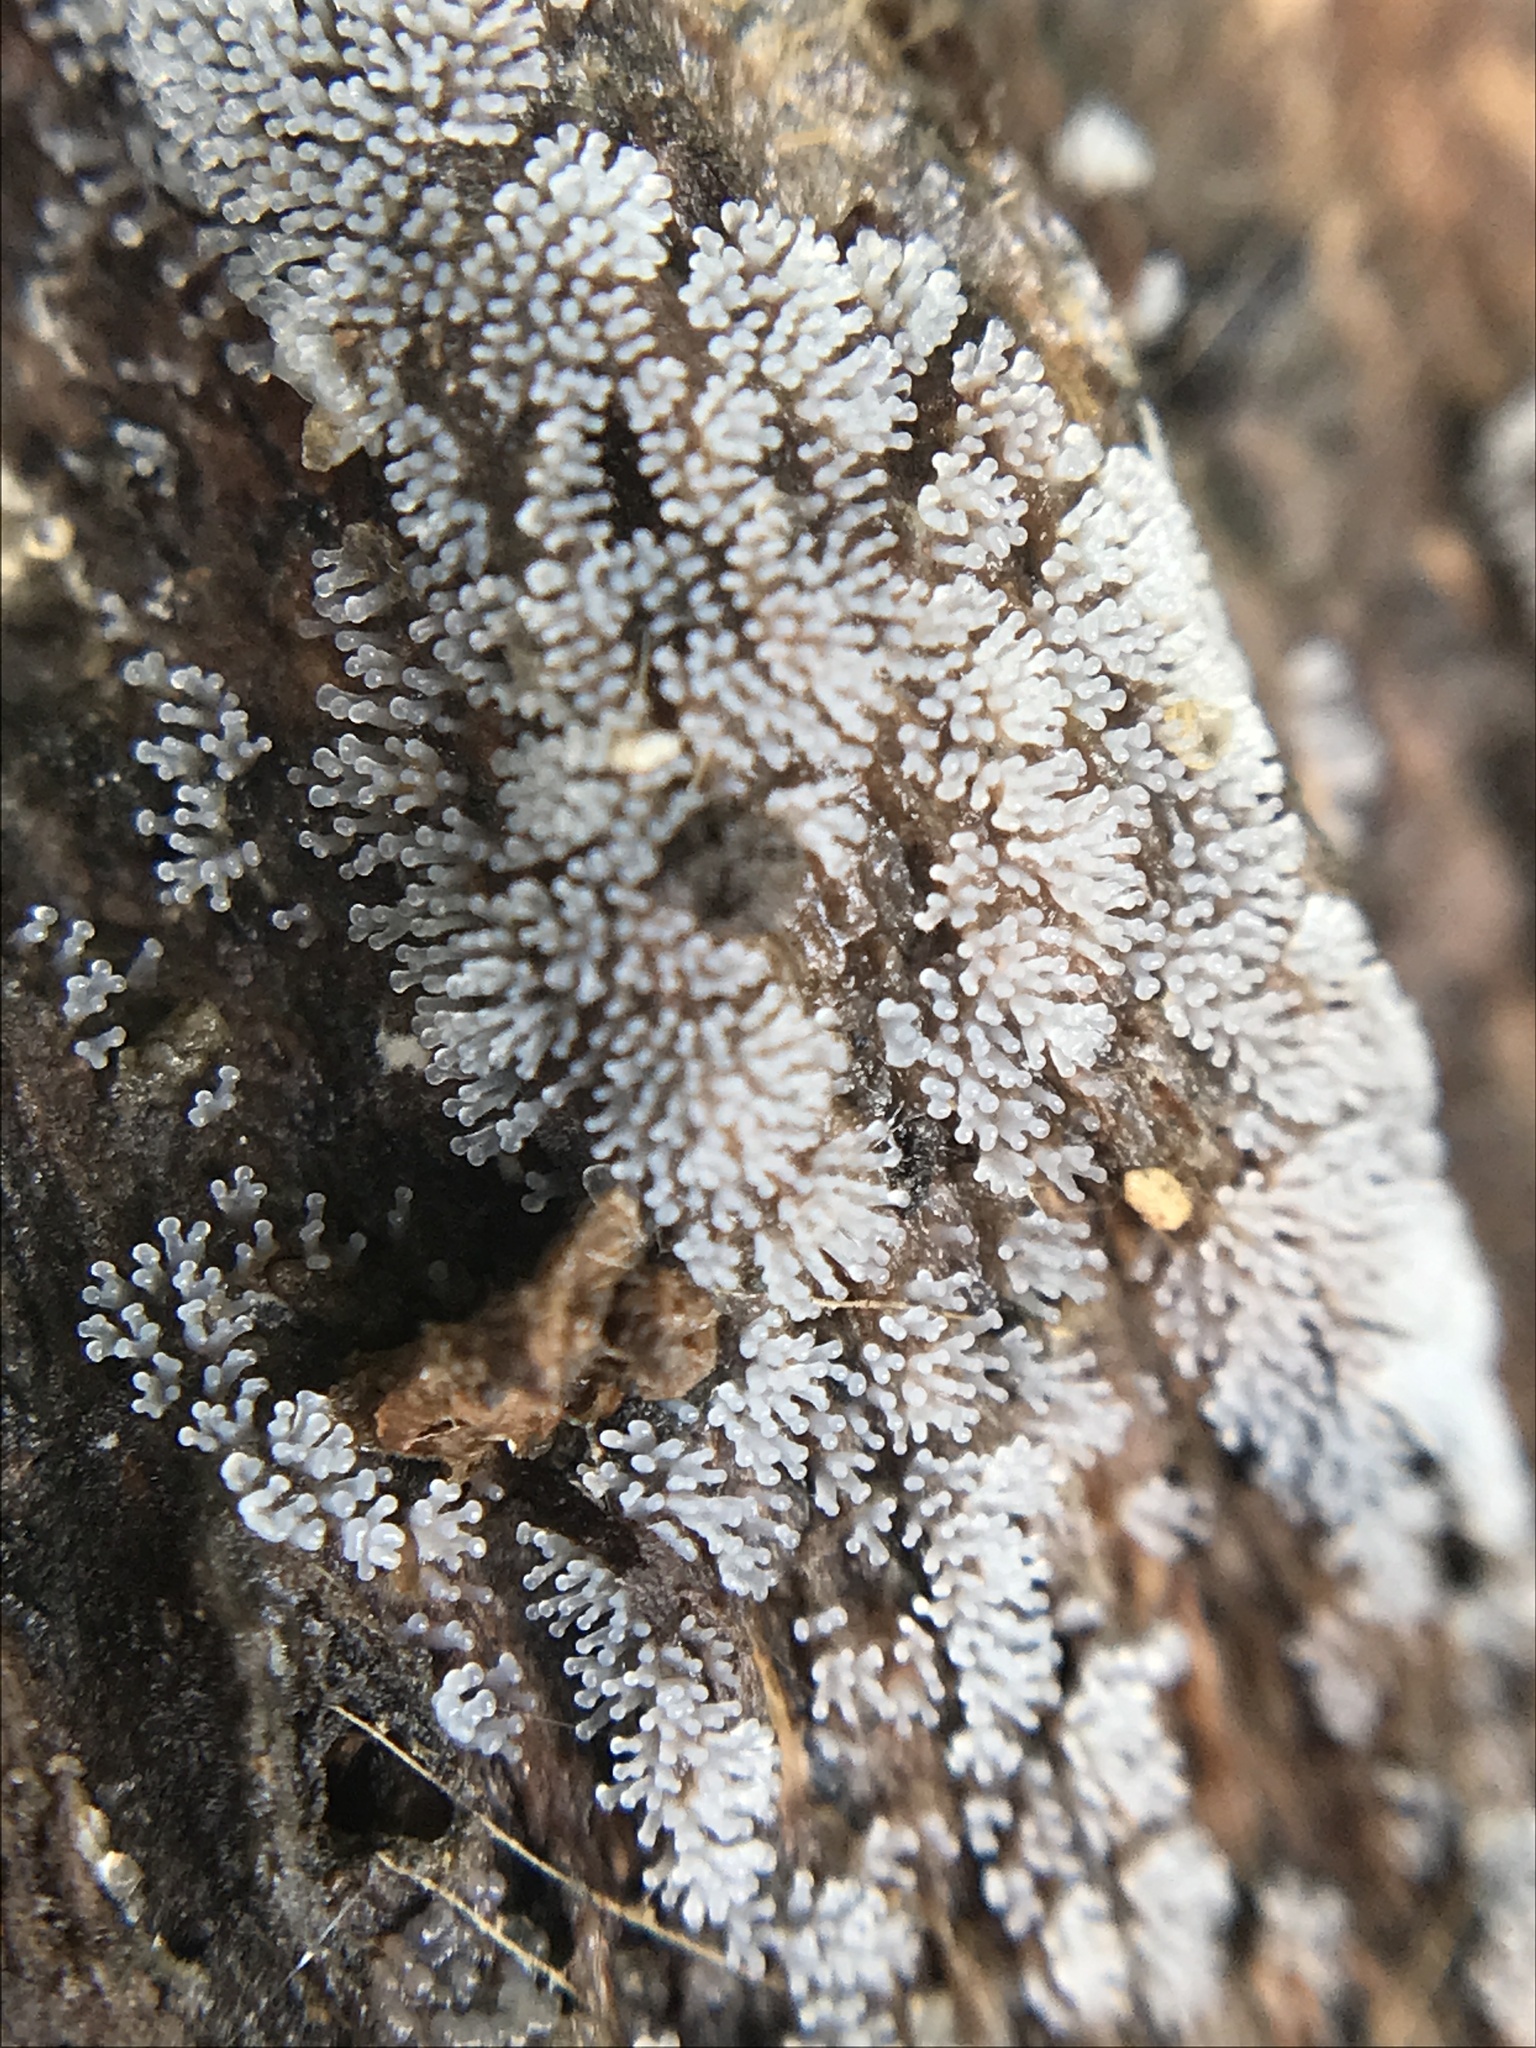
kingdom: Protozoa
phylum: Mycetozoa
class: Protosteliomycetes
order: Ceratiomyxales
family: Ceratiomyxaceae
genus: Ceratiomyxa
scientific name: Ceratiomyxa fruticulosa
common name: Honeycomb coral slime mold
